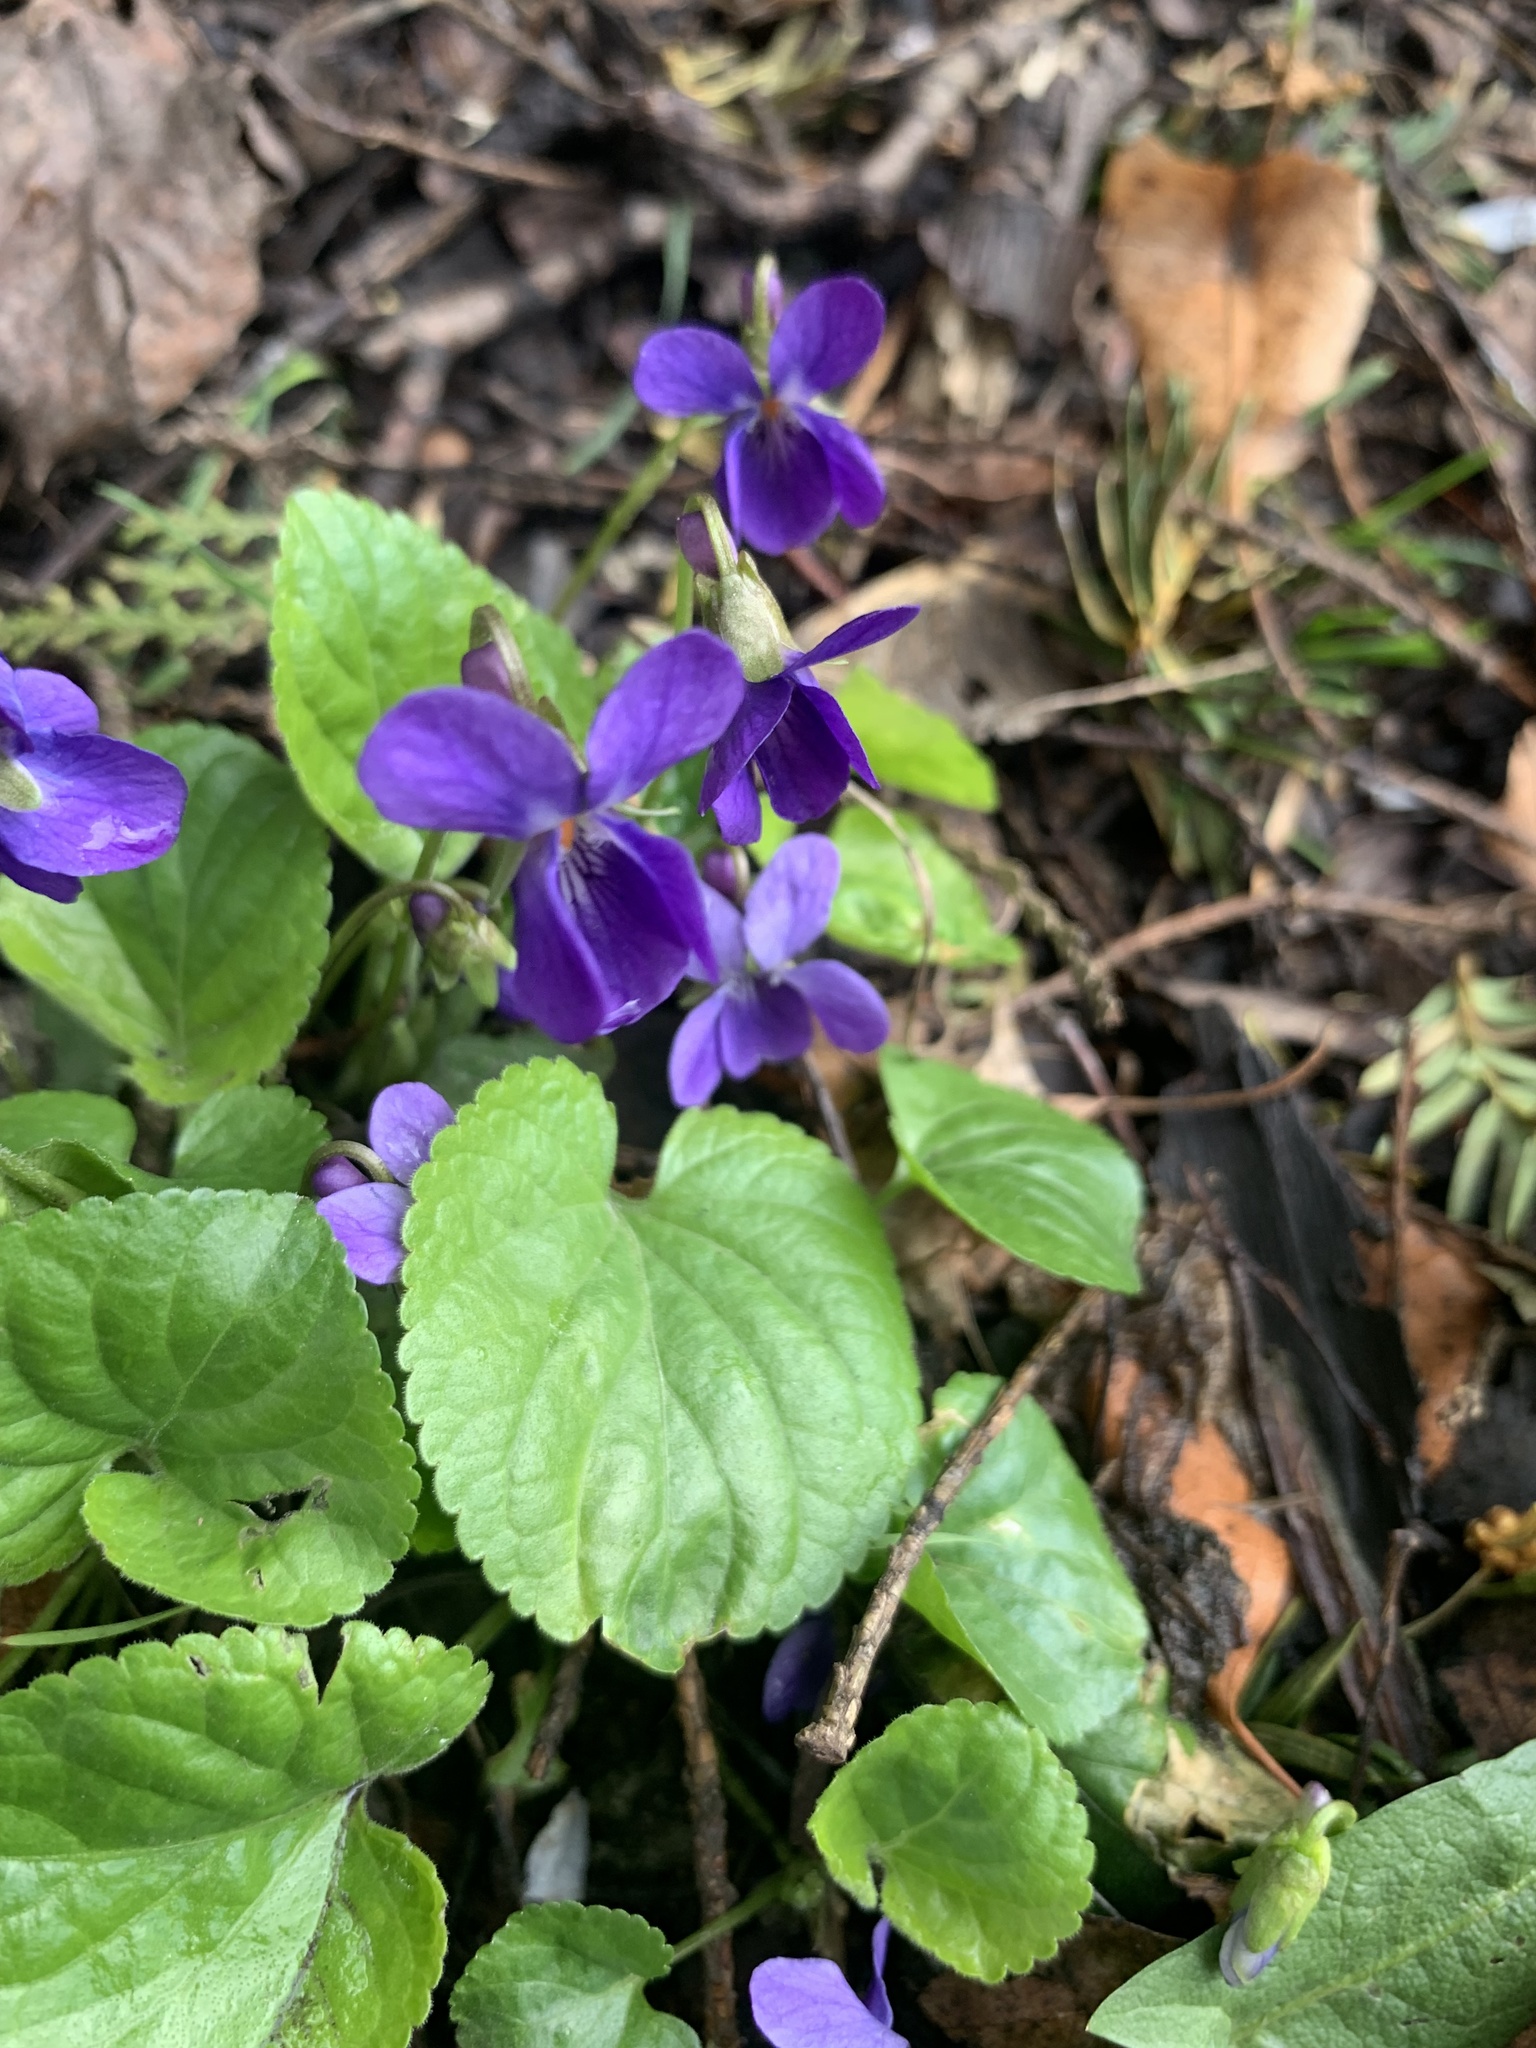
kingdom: Plantae
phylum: Tracheophyta
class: Magnoliopsida
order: Malpighiales
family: Violaceae
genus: Viola
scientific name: Viola odorata
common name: Sweet violet
